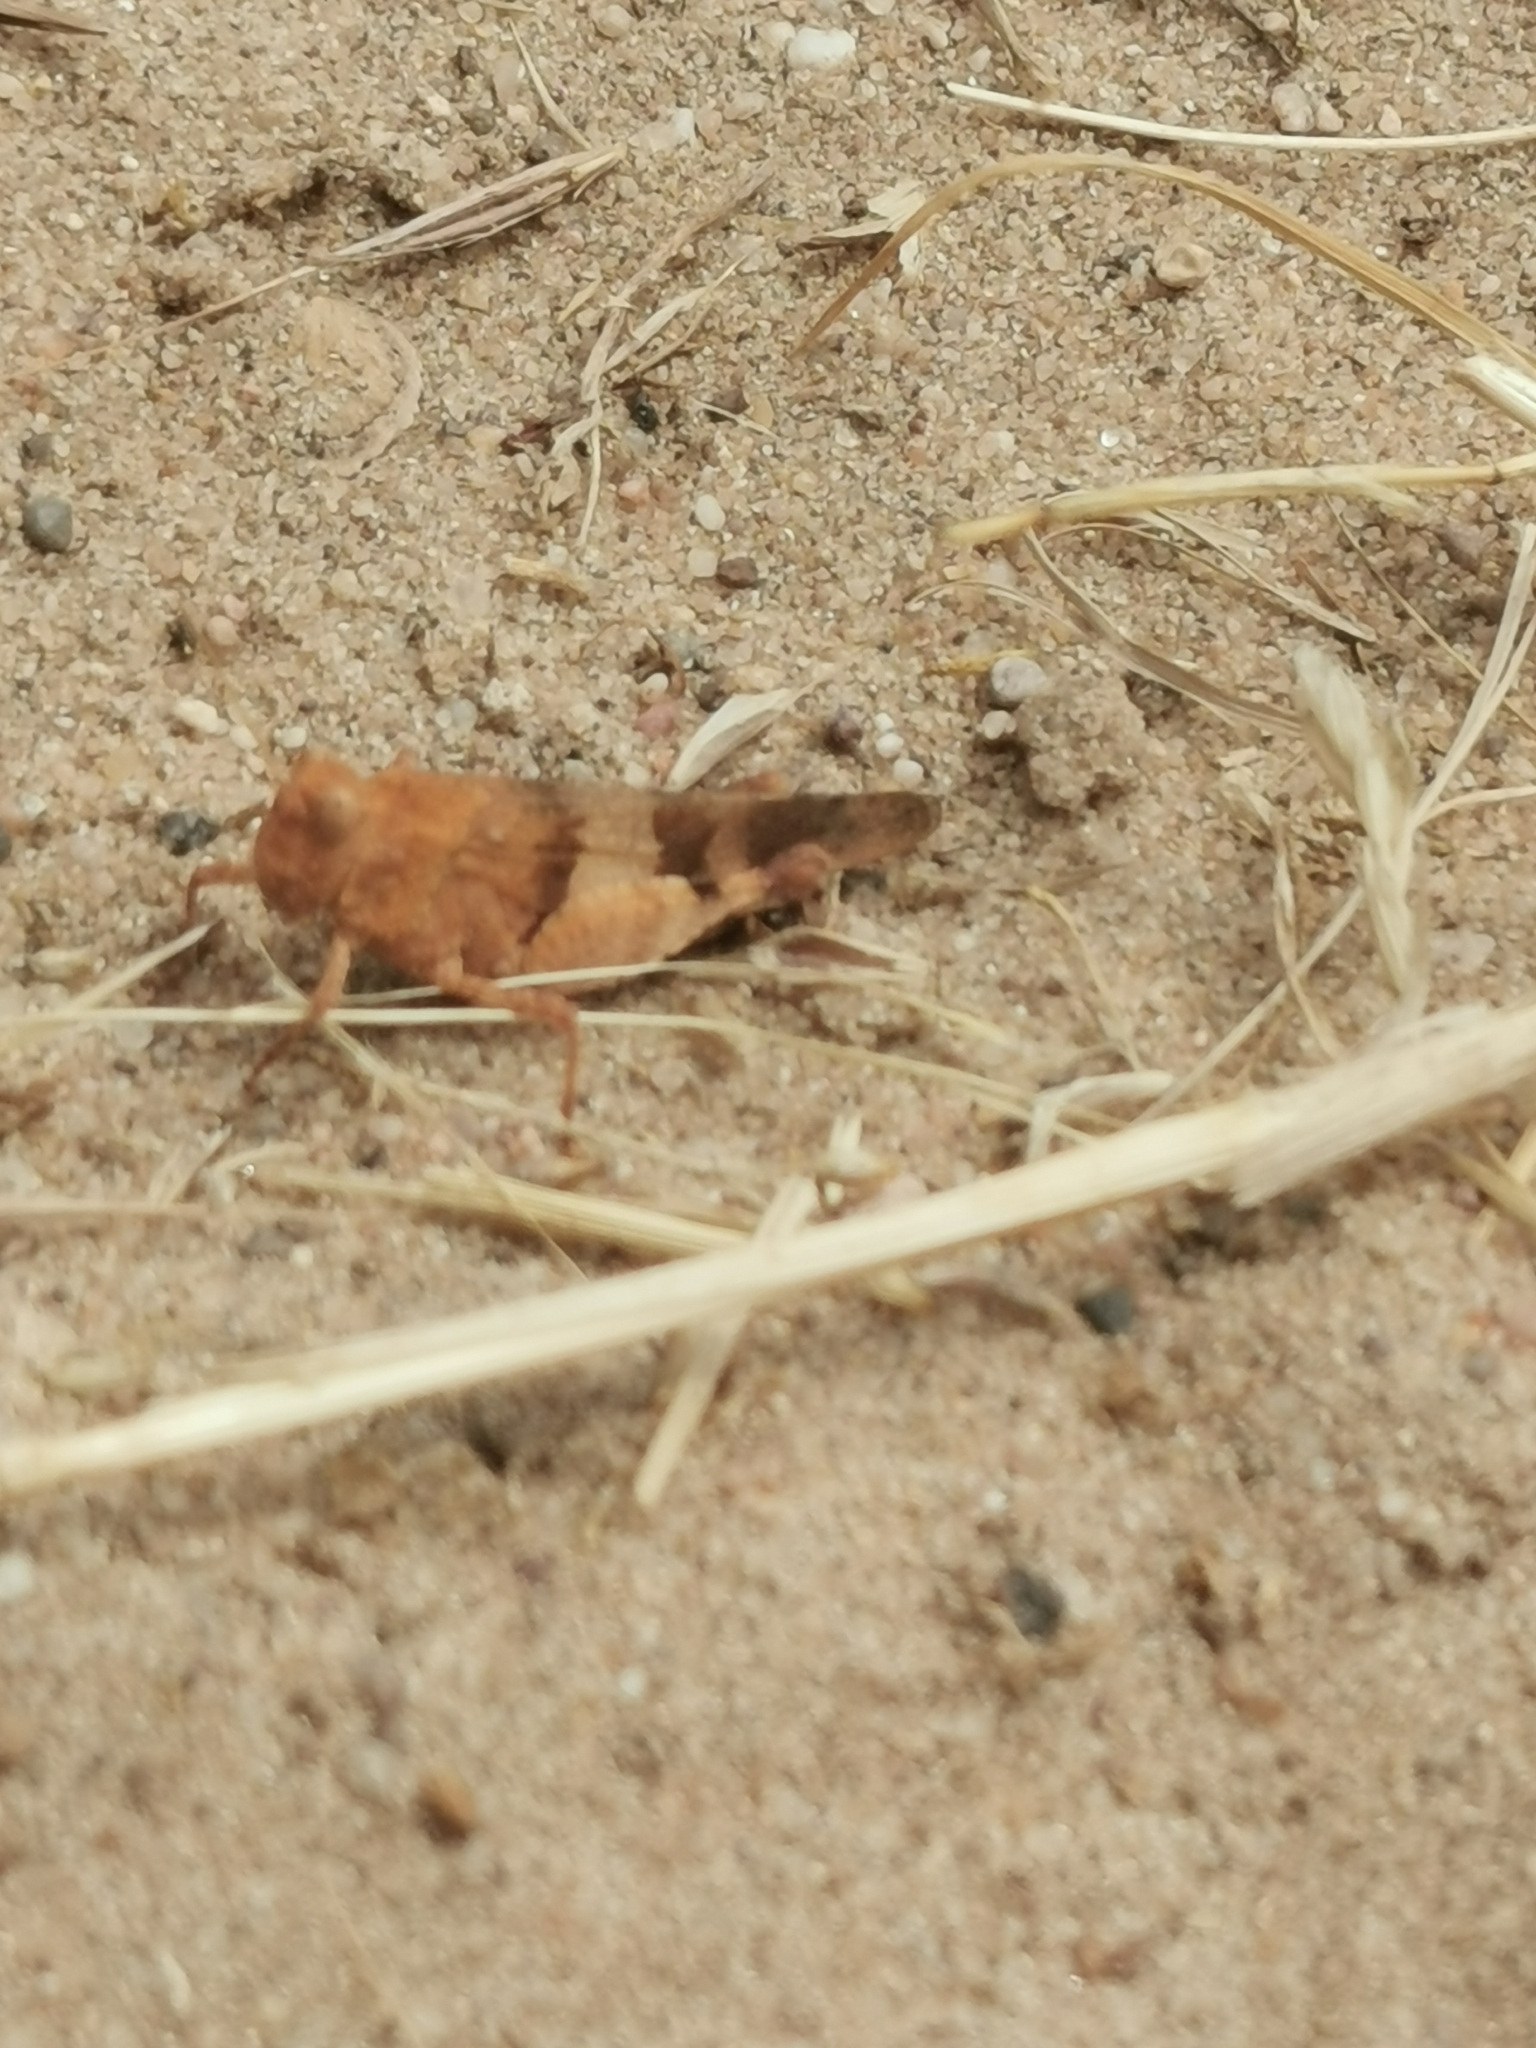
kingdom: Animalia
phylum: Arthropoda
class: Insecta
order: Orthoptera
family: Acrididae
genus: Oedipoda
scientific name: Oedipoda caerulescens
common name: Blue-winged grasshopper
